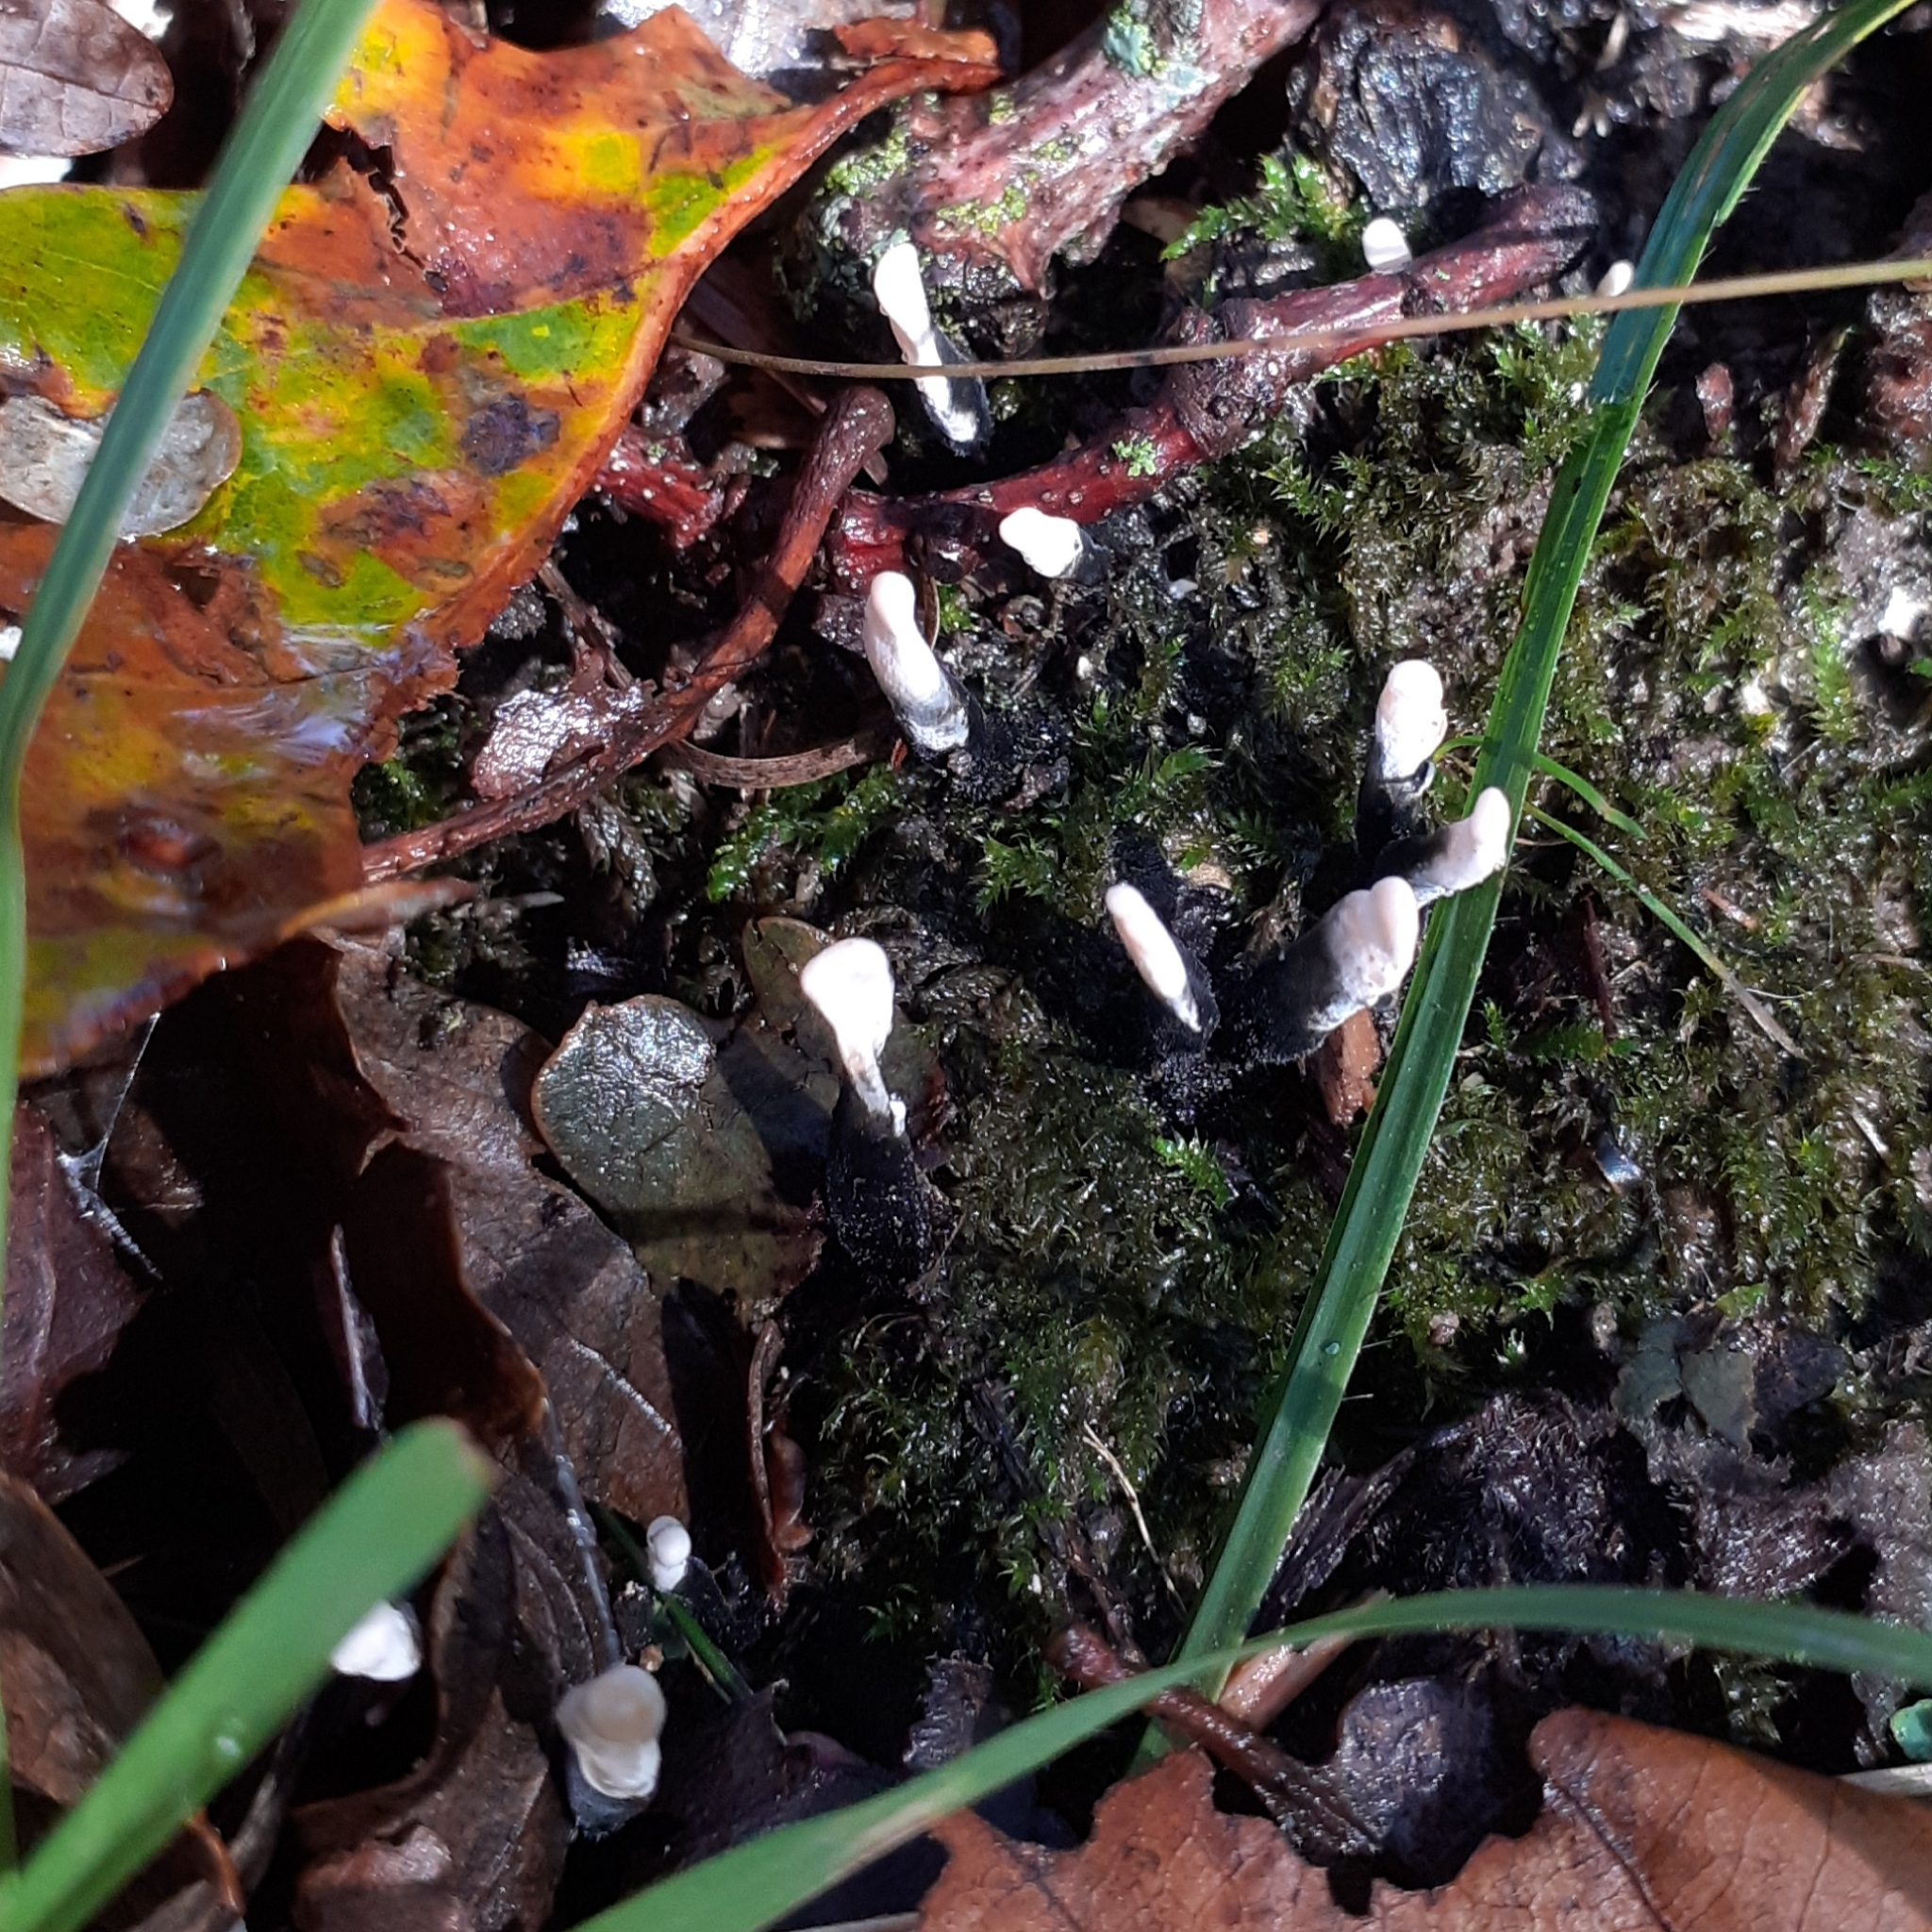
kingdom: Fungi
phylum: Ascomycota
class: Sordariomycetes
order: Xylariales
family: Xylariaceae
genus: Xylaria
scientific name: Xylaria hypoxylon
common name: Candle-snuff fungus
